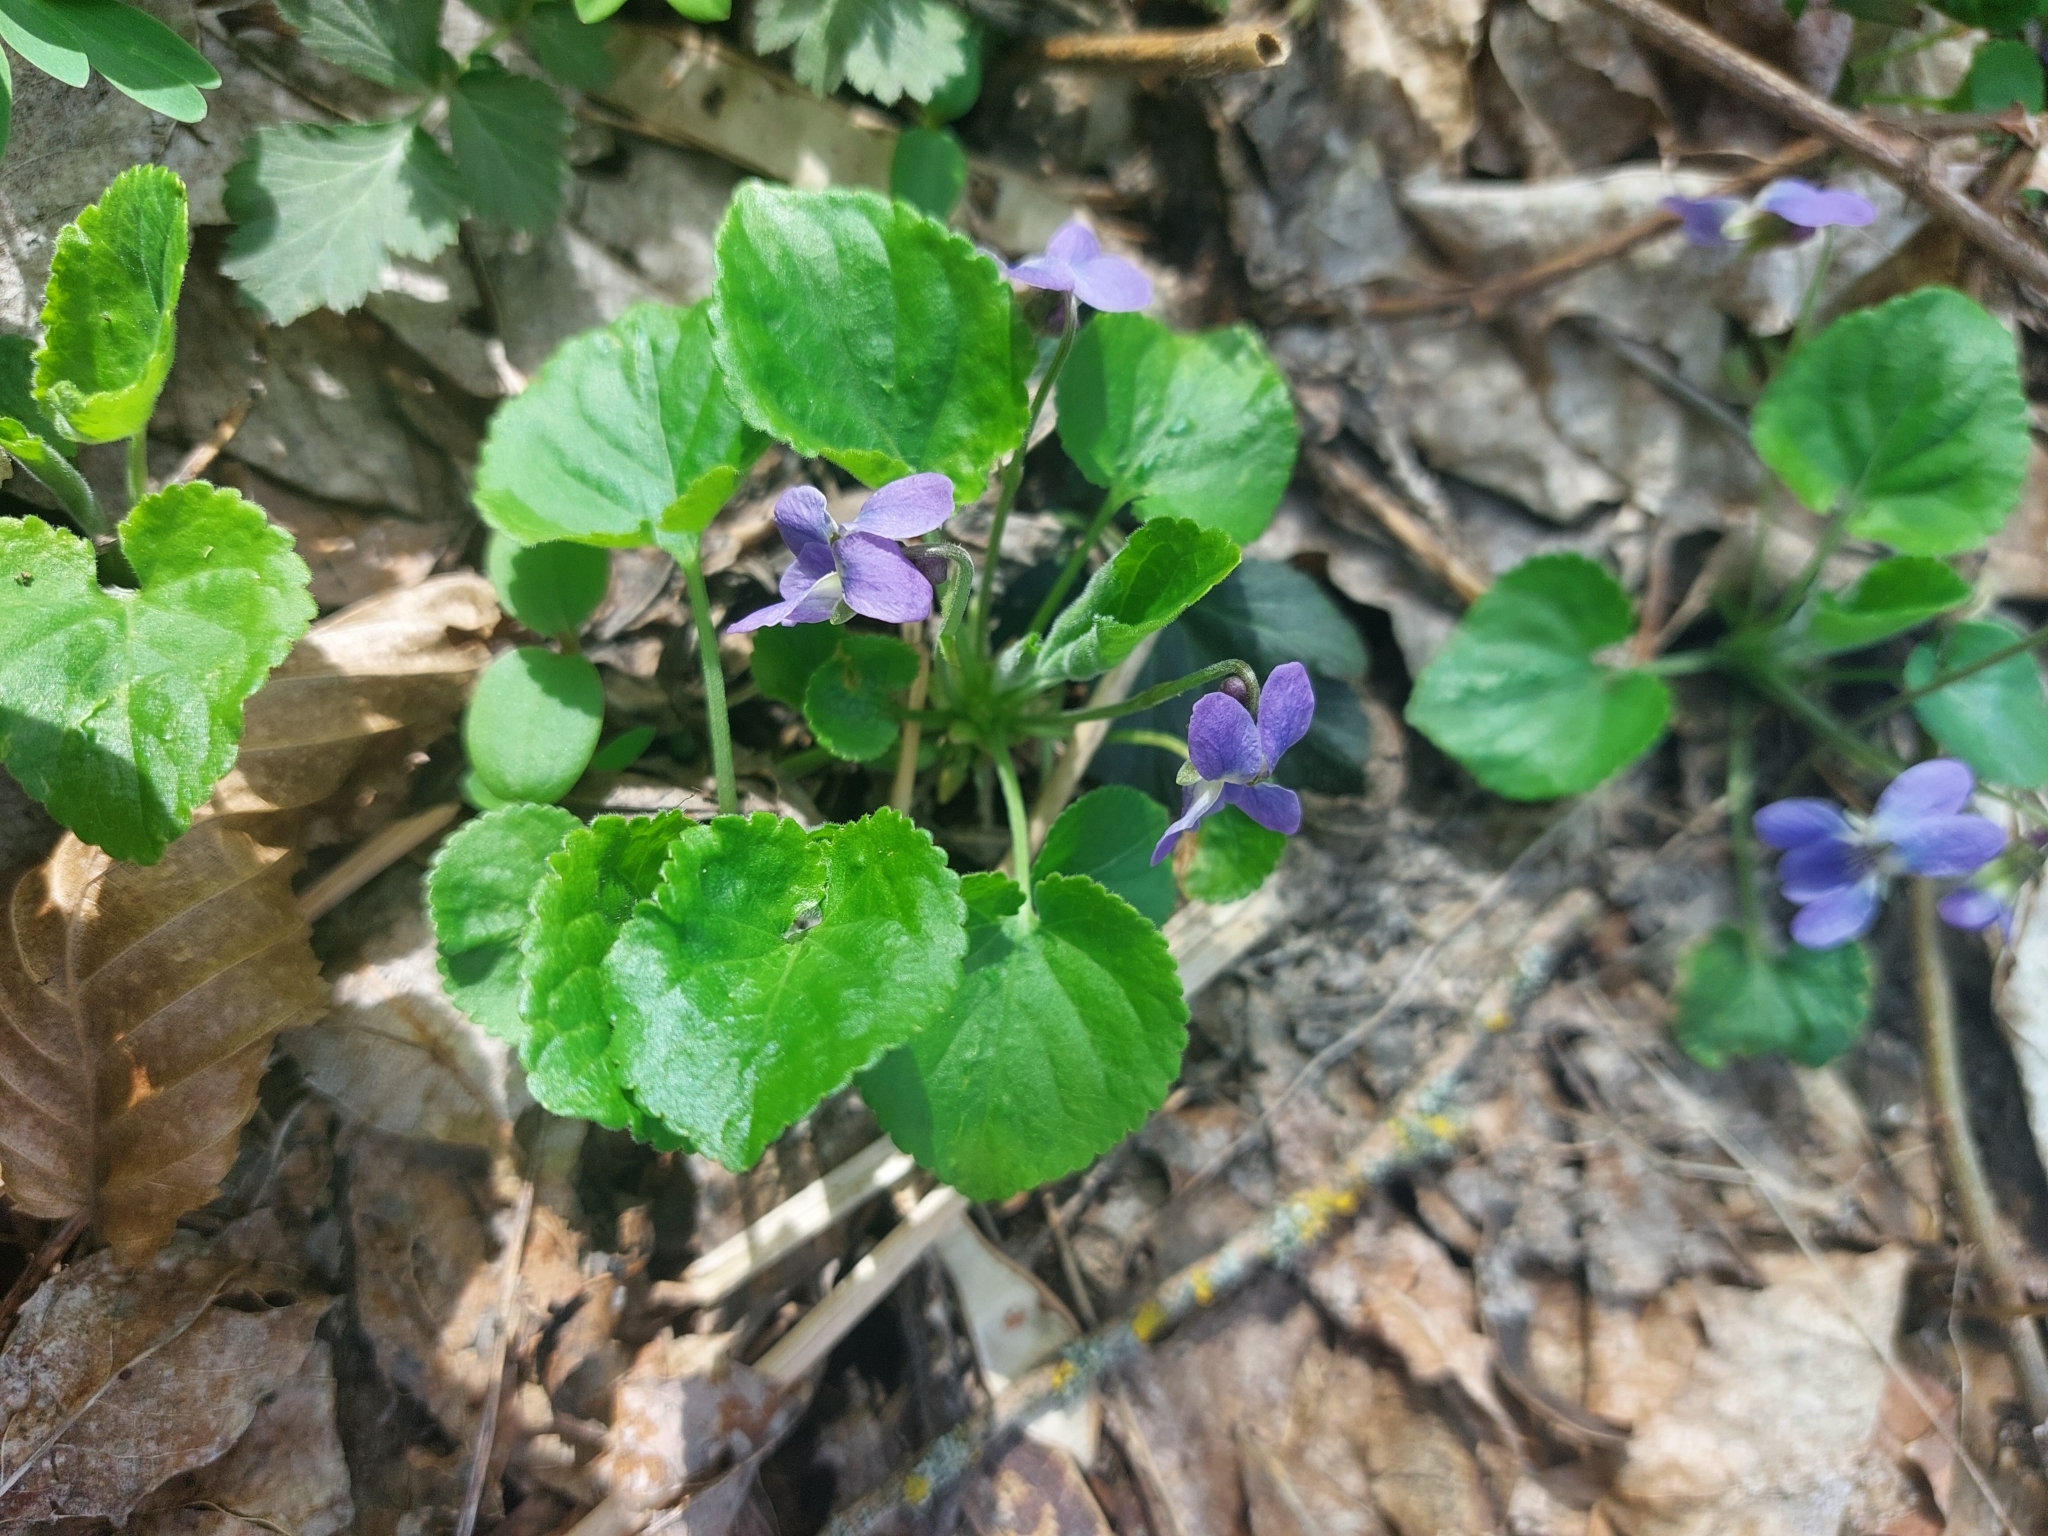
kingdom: Plantae
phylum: Tracheophyta
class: Magnoliopsida
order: Malpighiales
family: Violaceae
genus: Viola
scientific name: Viola odorata
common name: Sweet violet
